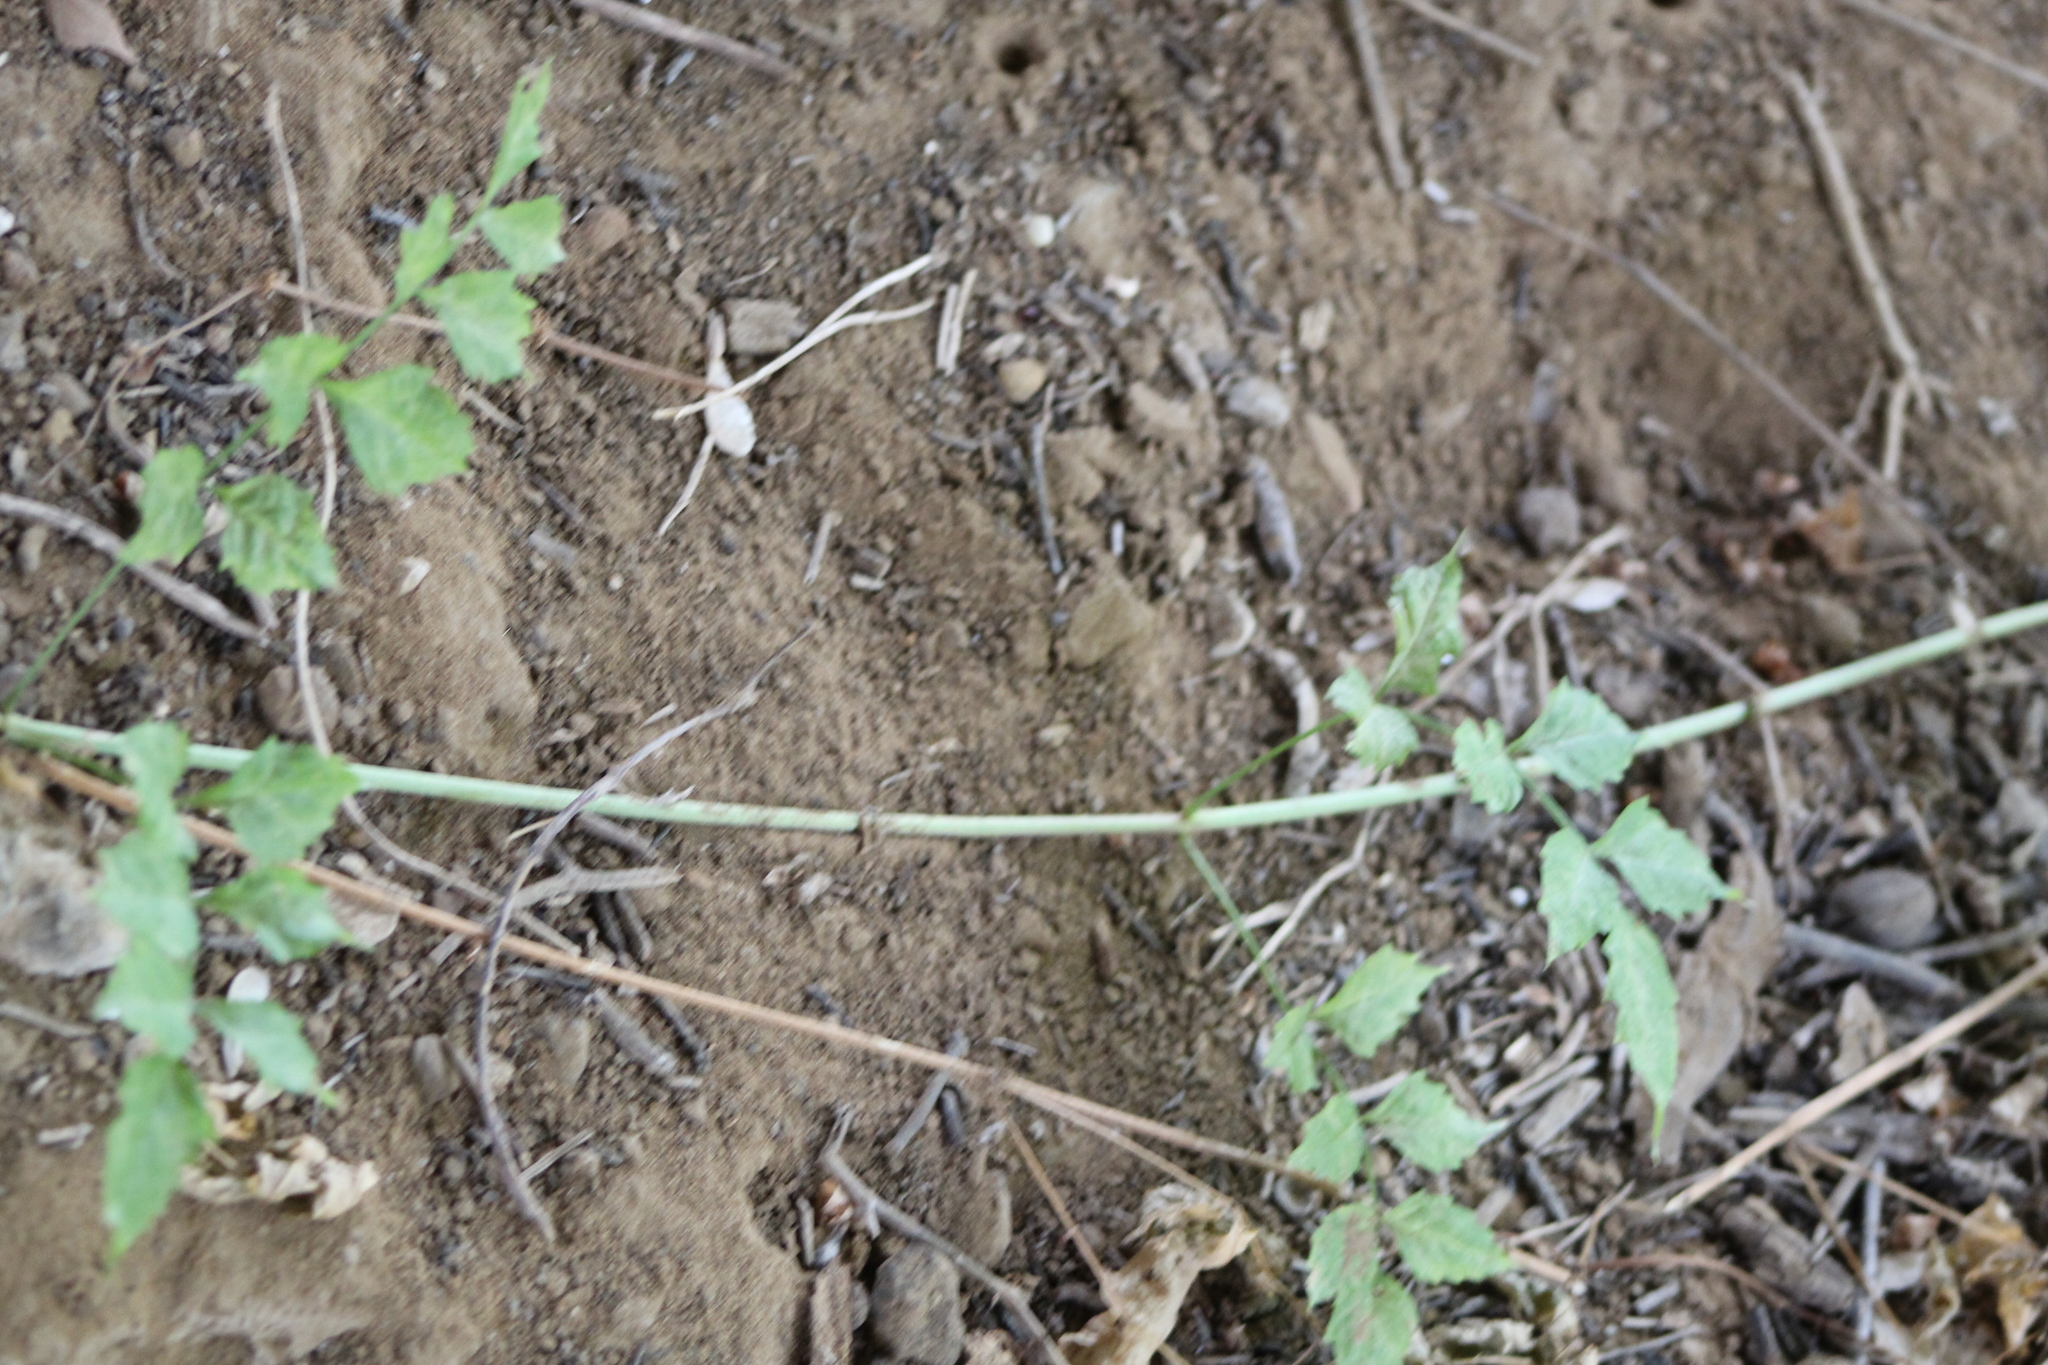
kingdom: Plantae
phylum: Tracheophyta
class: Magnoliopsida
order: Lamiales
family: Bignoniaceae
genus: Campsis
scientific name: Campsis radicans
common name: Trumpet-creeper
